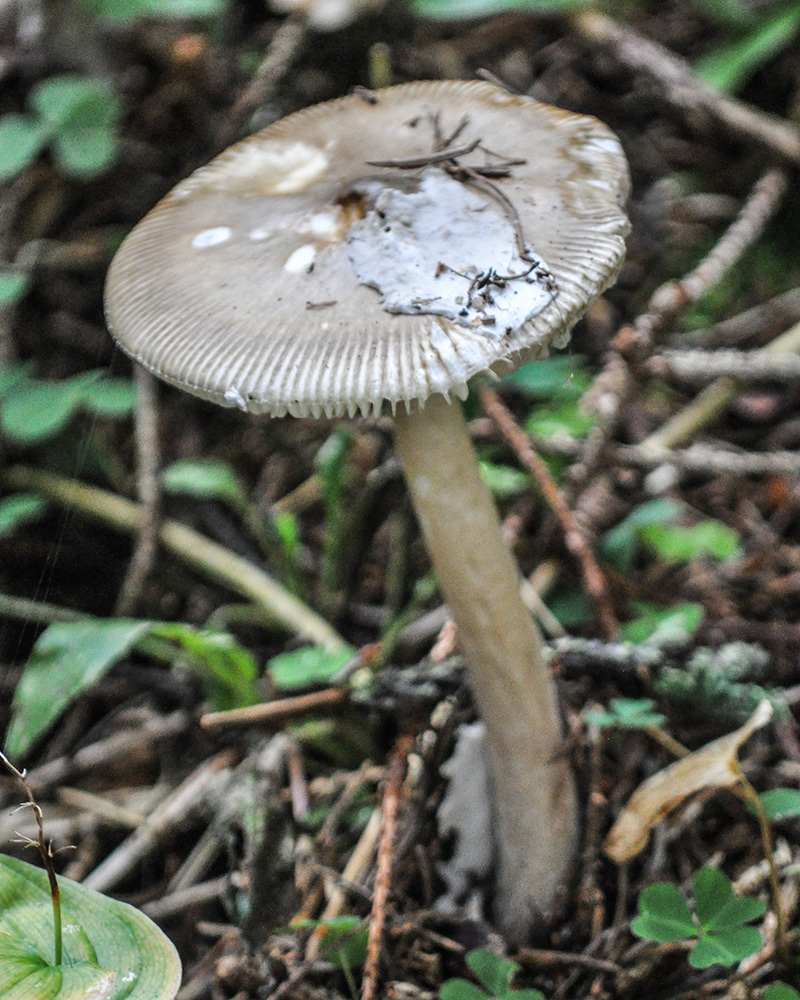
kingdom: Fungi
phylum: Basidiomycota
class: Agaricomycetes
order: Agaricales
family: Amanitaceae
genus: Amanita
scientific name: Amanita submembranacea
